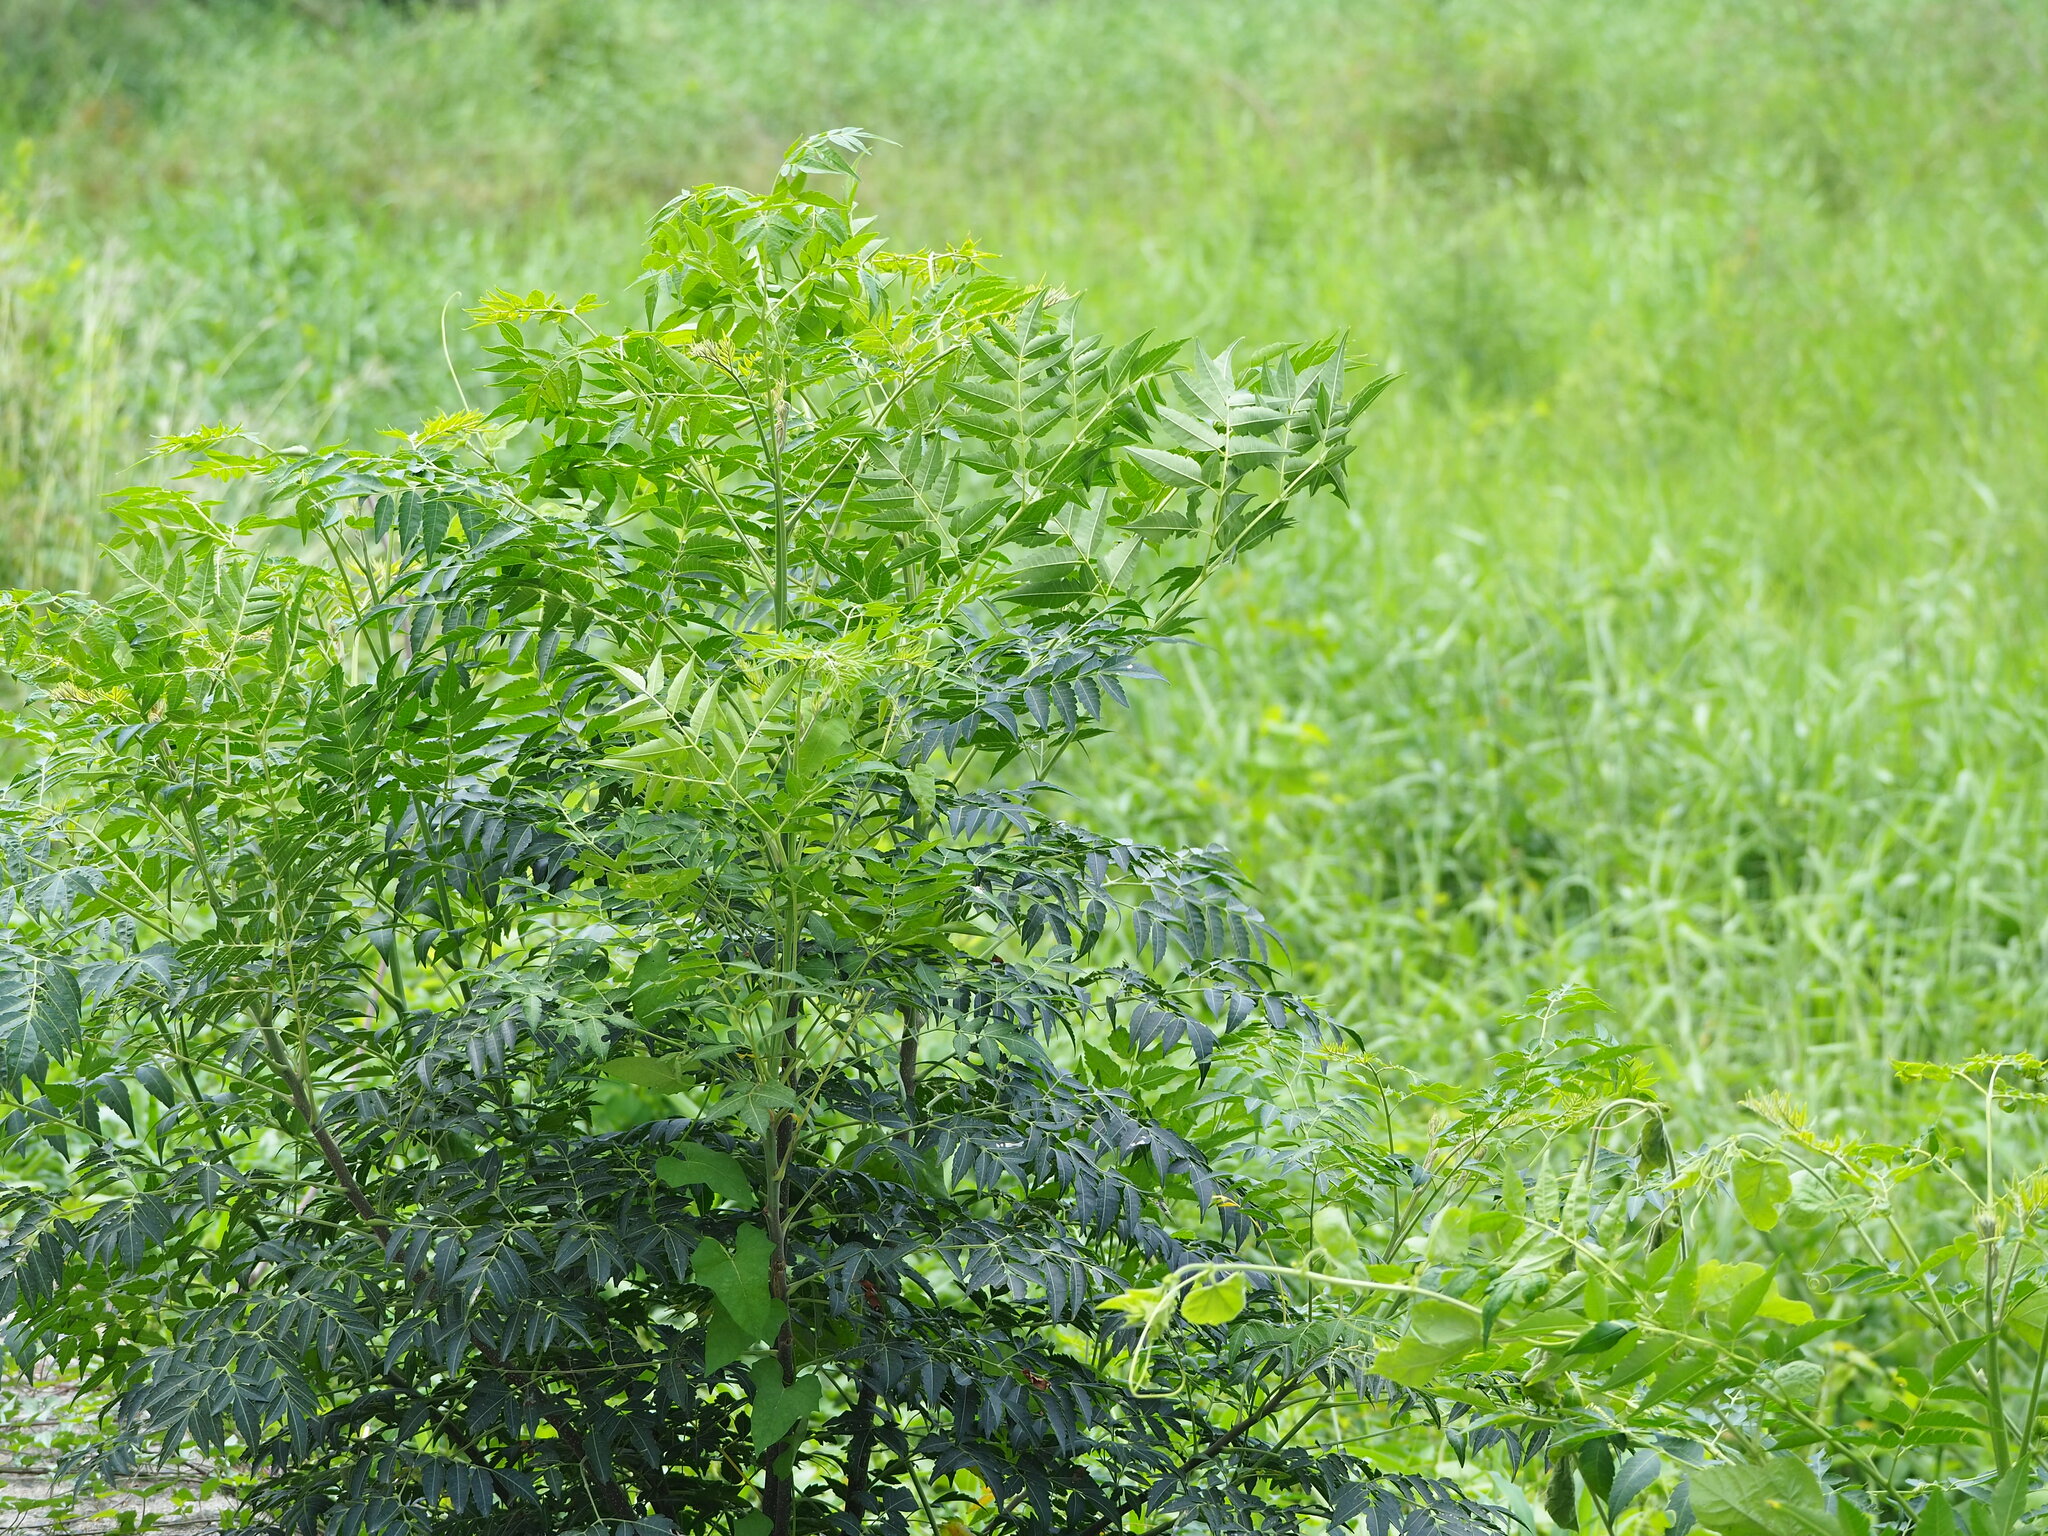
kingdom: Plantae
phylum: Tracheophyta
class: Magnoliopsida
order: Sapindales
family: Meliaceae
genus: Melia
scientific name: Melia azedarach
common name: Chinaberrytree
